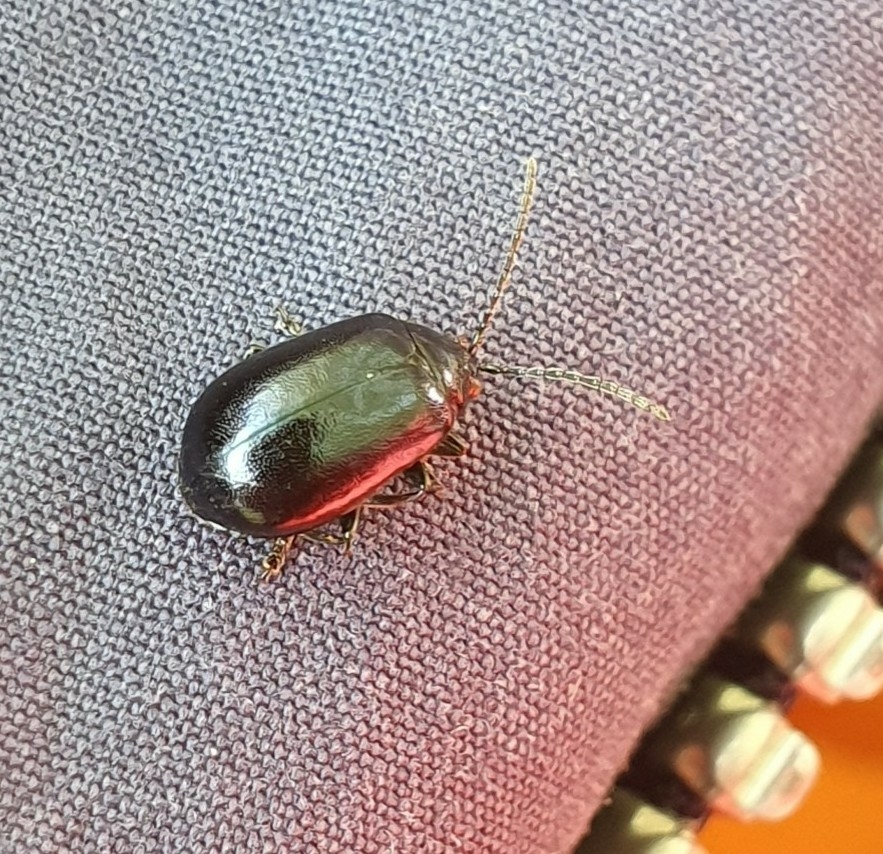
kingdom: Animalia
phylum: Arthropoda
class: Insecta
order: Coleoptera
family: Chrysomelidae
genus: Agelastica
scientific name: Agelastica alni
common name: Alder leaf beetle
